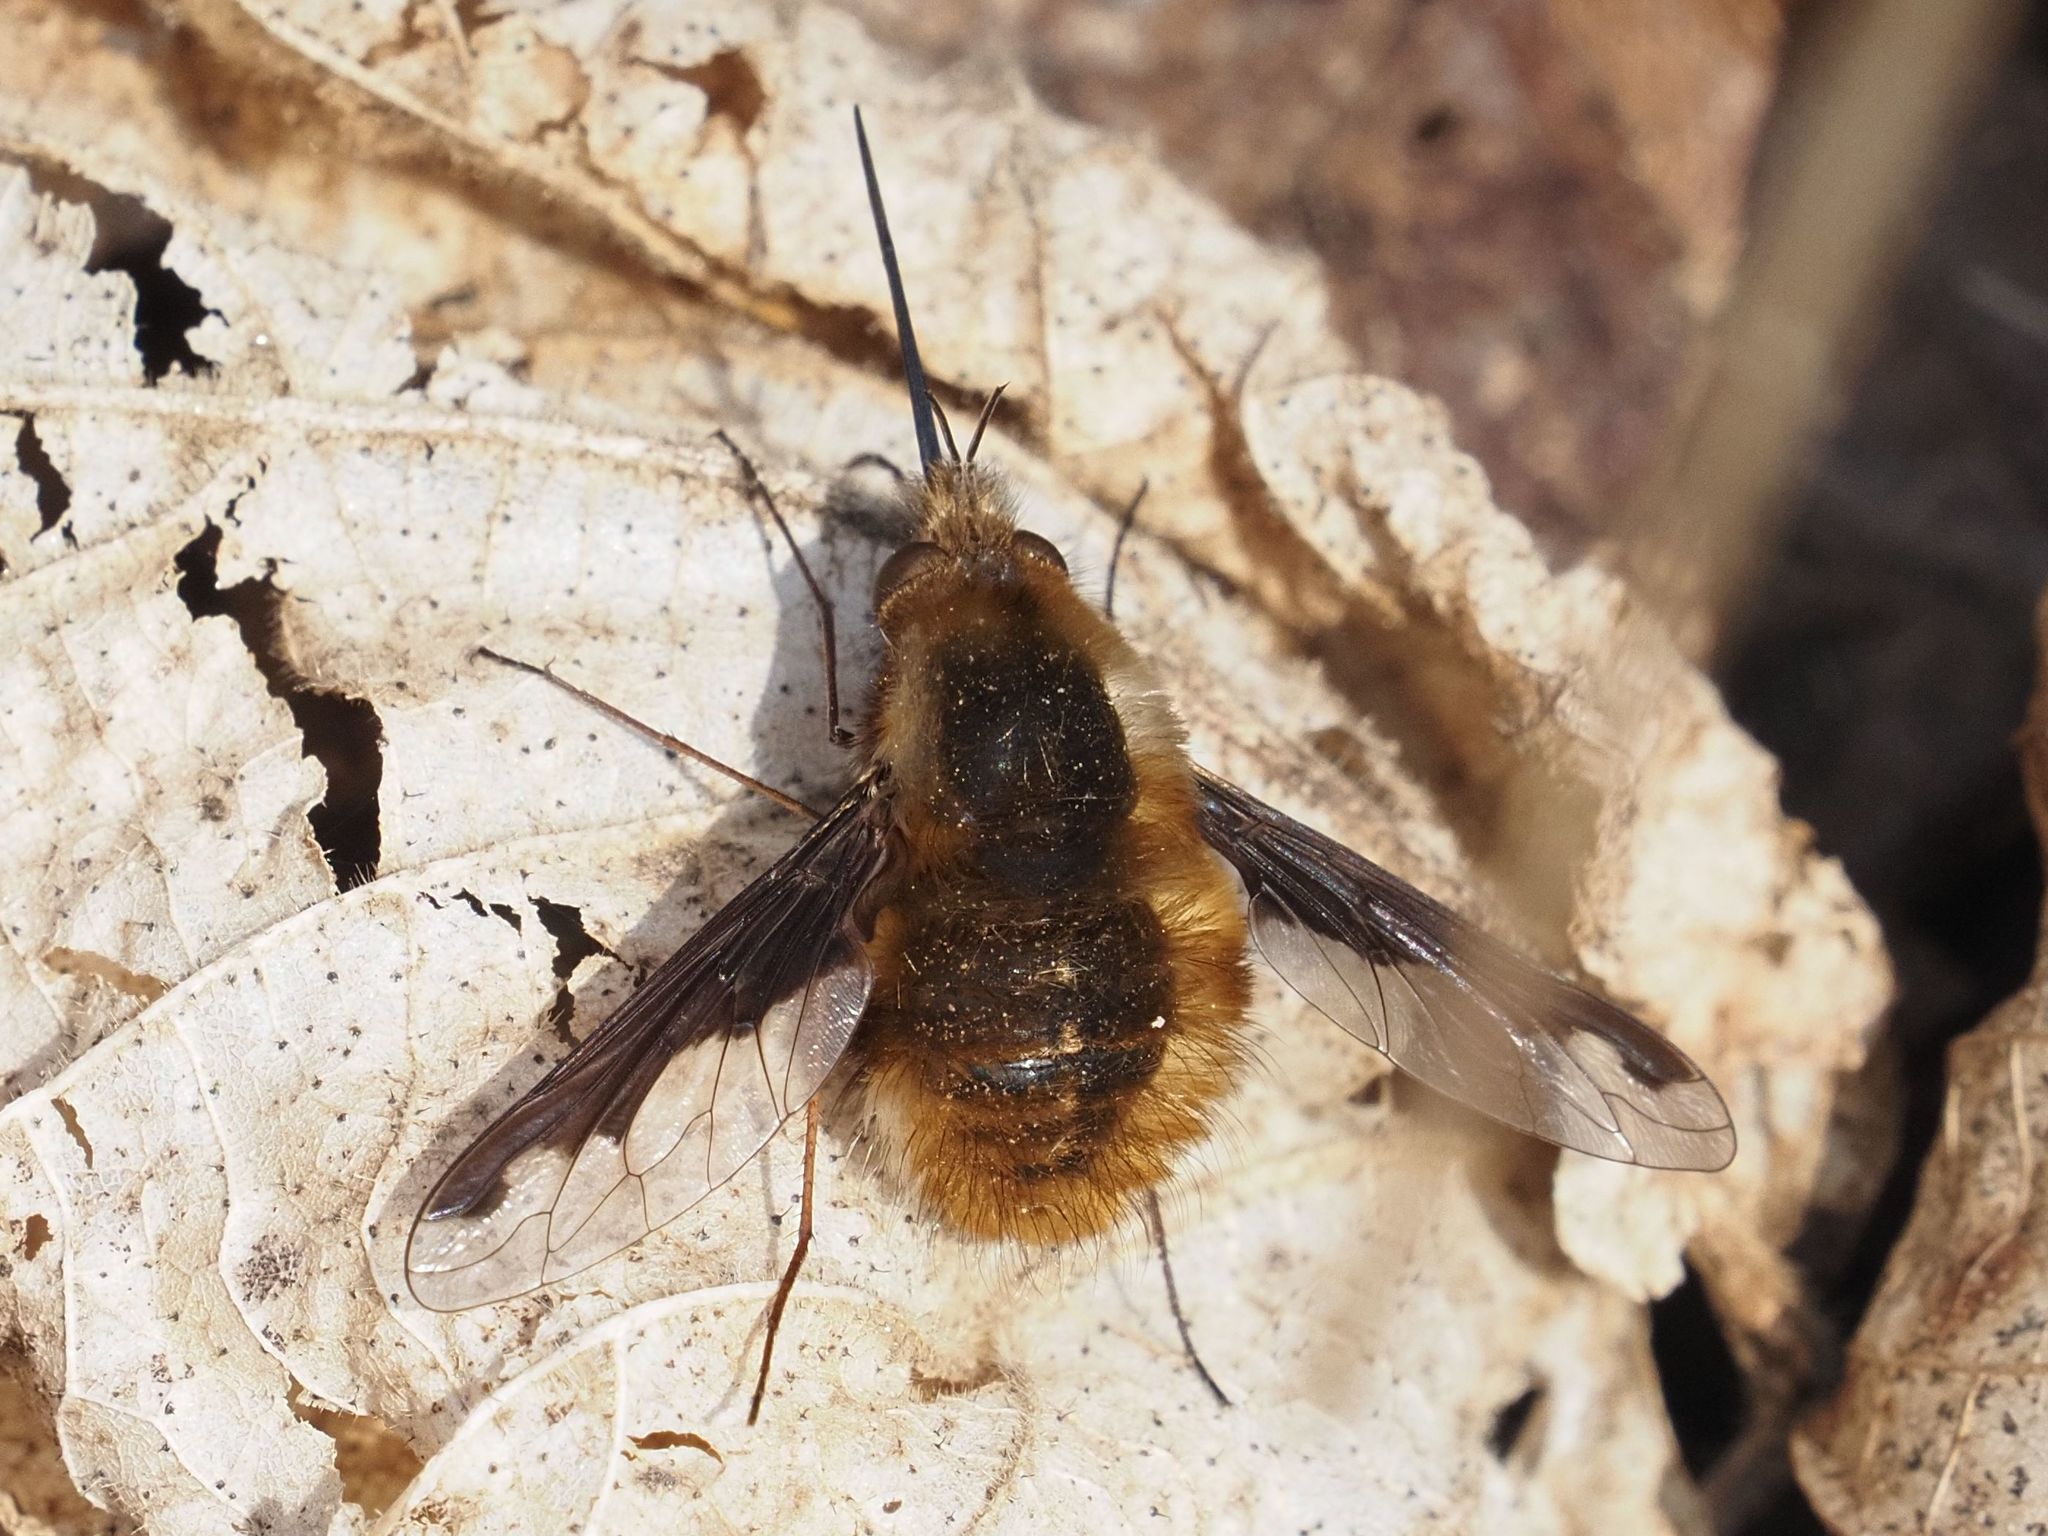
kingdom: Animalia
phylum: Arthropoda
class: Insecta
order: Diptera
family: Bombyliidae
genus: Bombylius
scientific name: Bombylius major
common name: Bee fly
